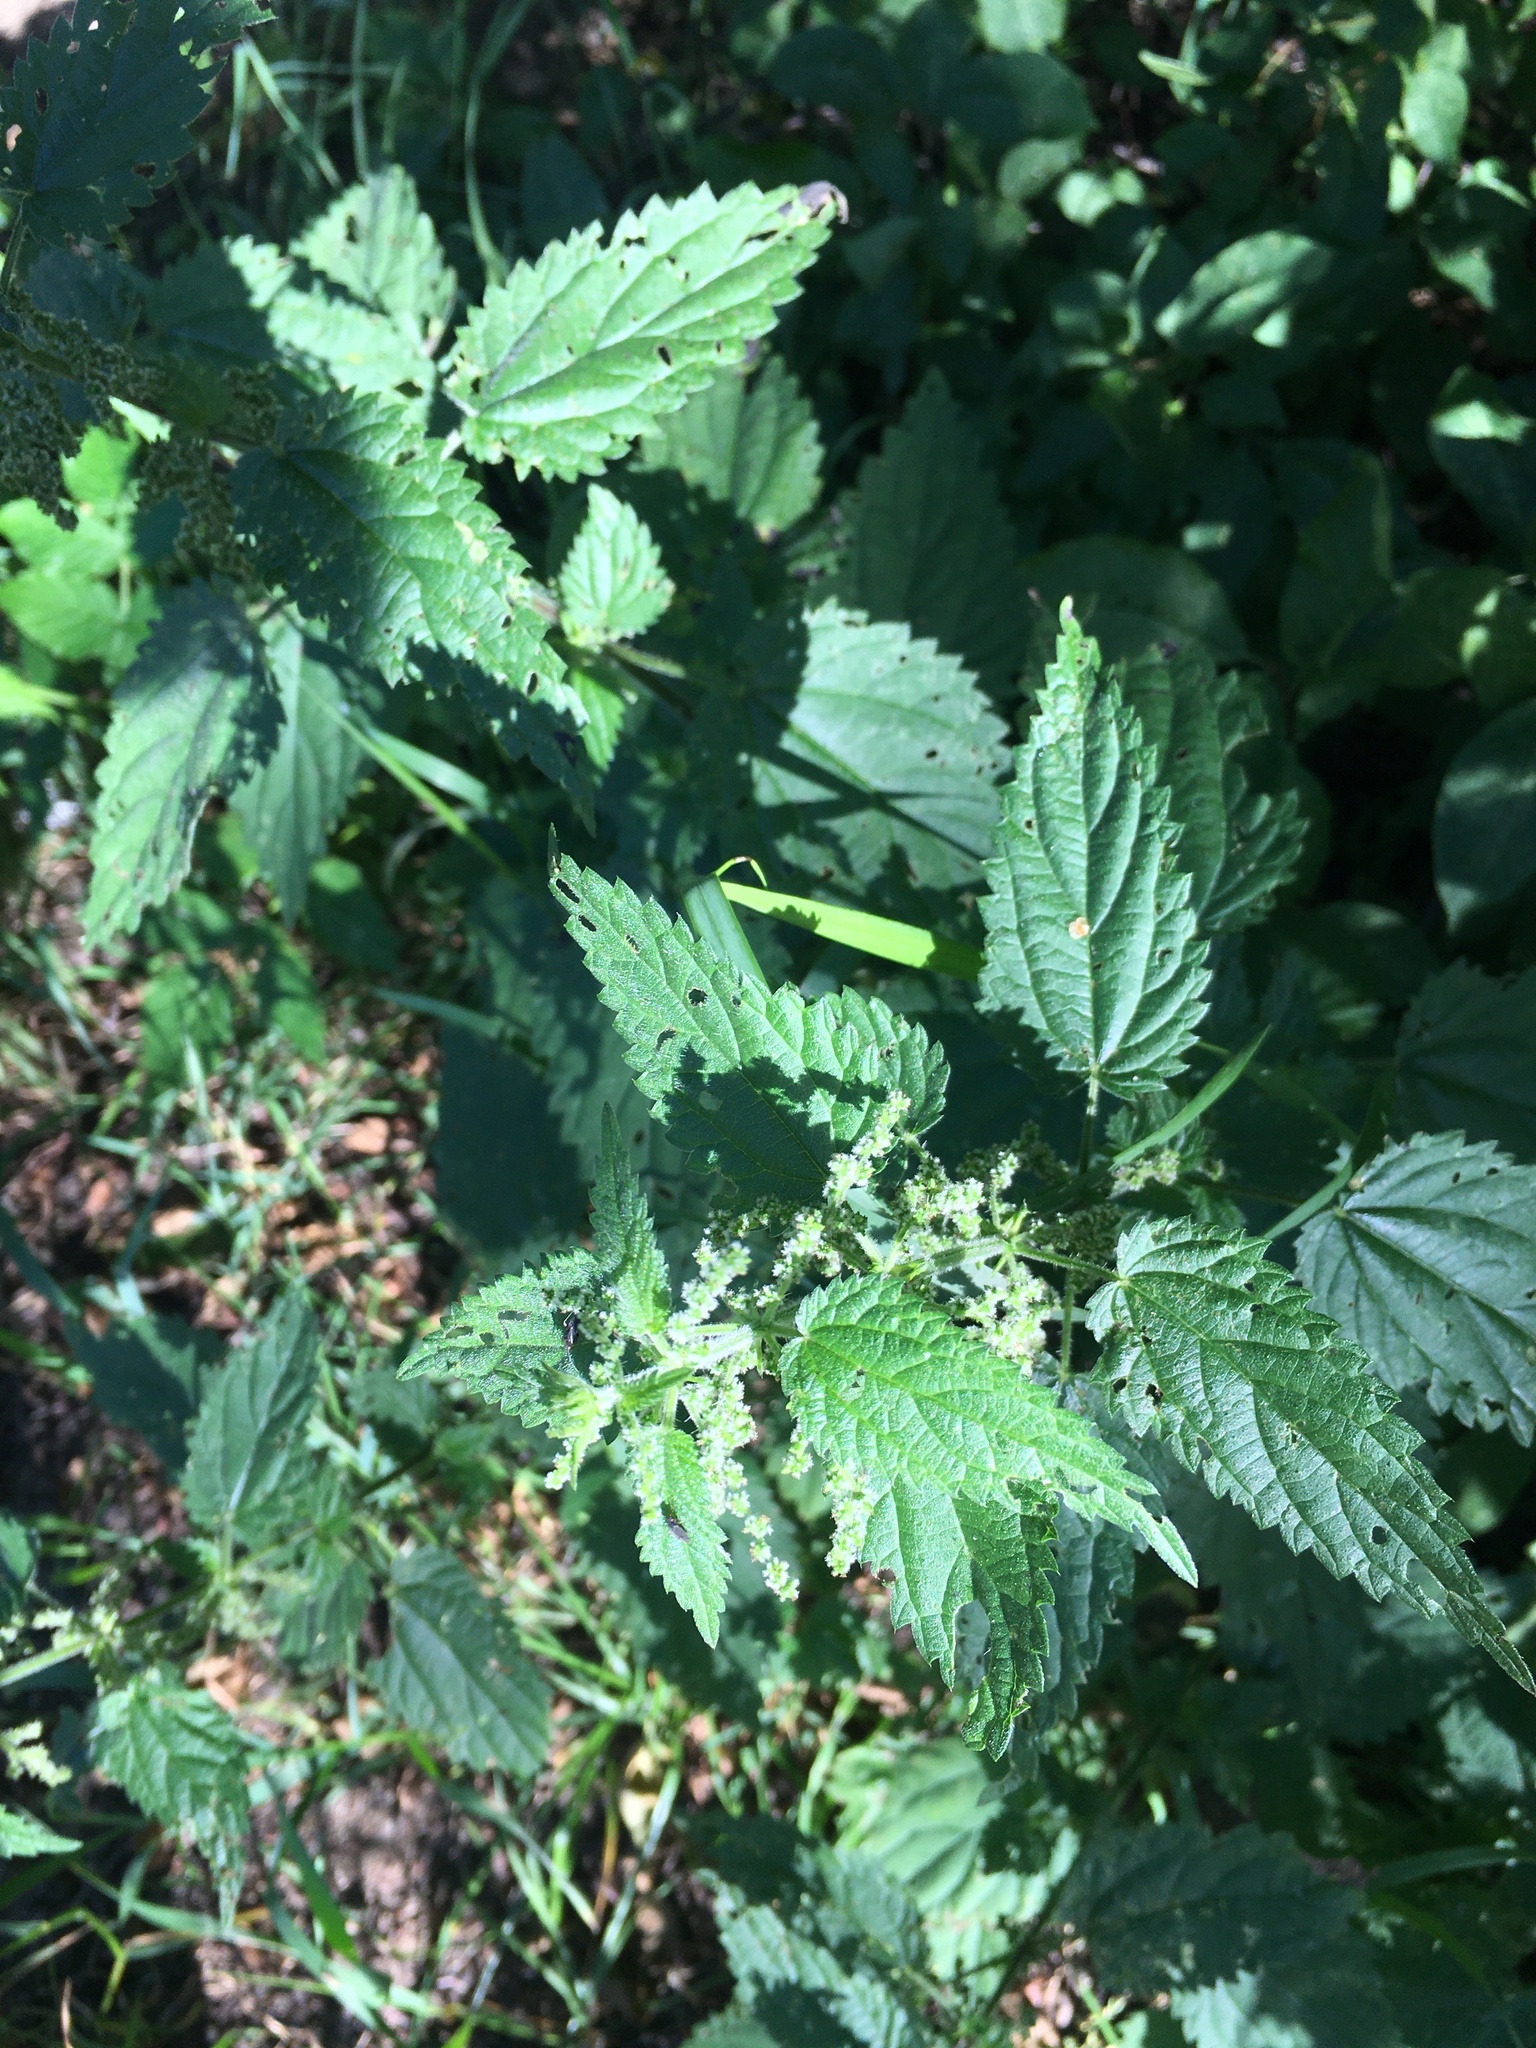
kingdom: Plantae
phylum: Tracheophyta
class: Magnoliopsida
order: Rosales
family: Urticaceae
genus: Urtica
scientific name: Urtica dioica
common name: Common nettle
